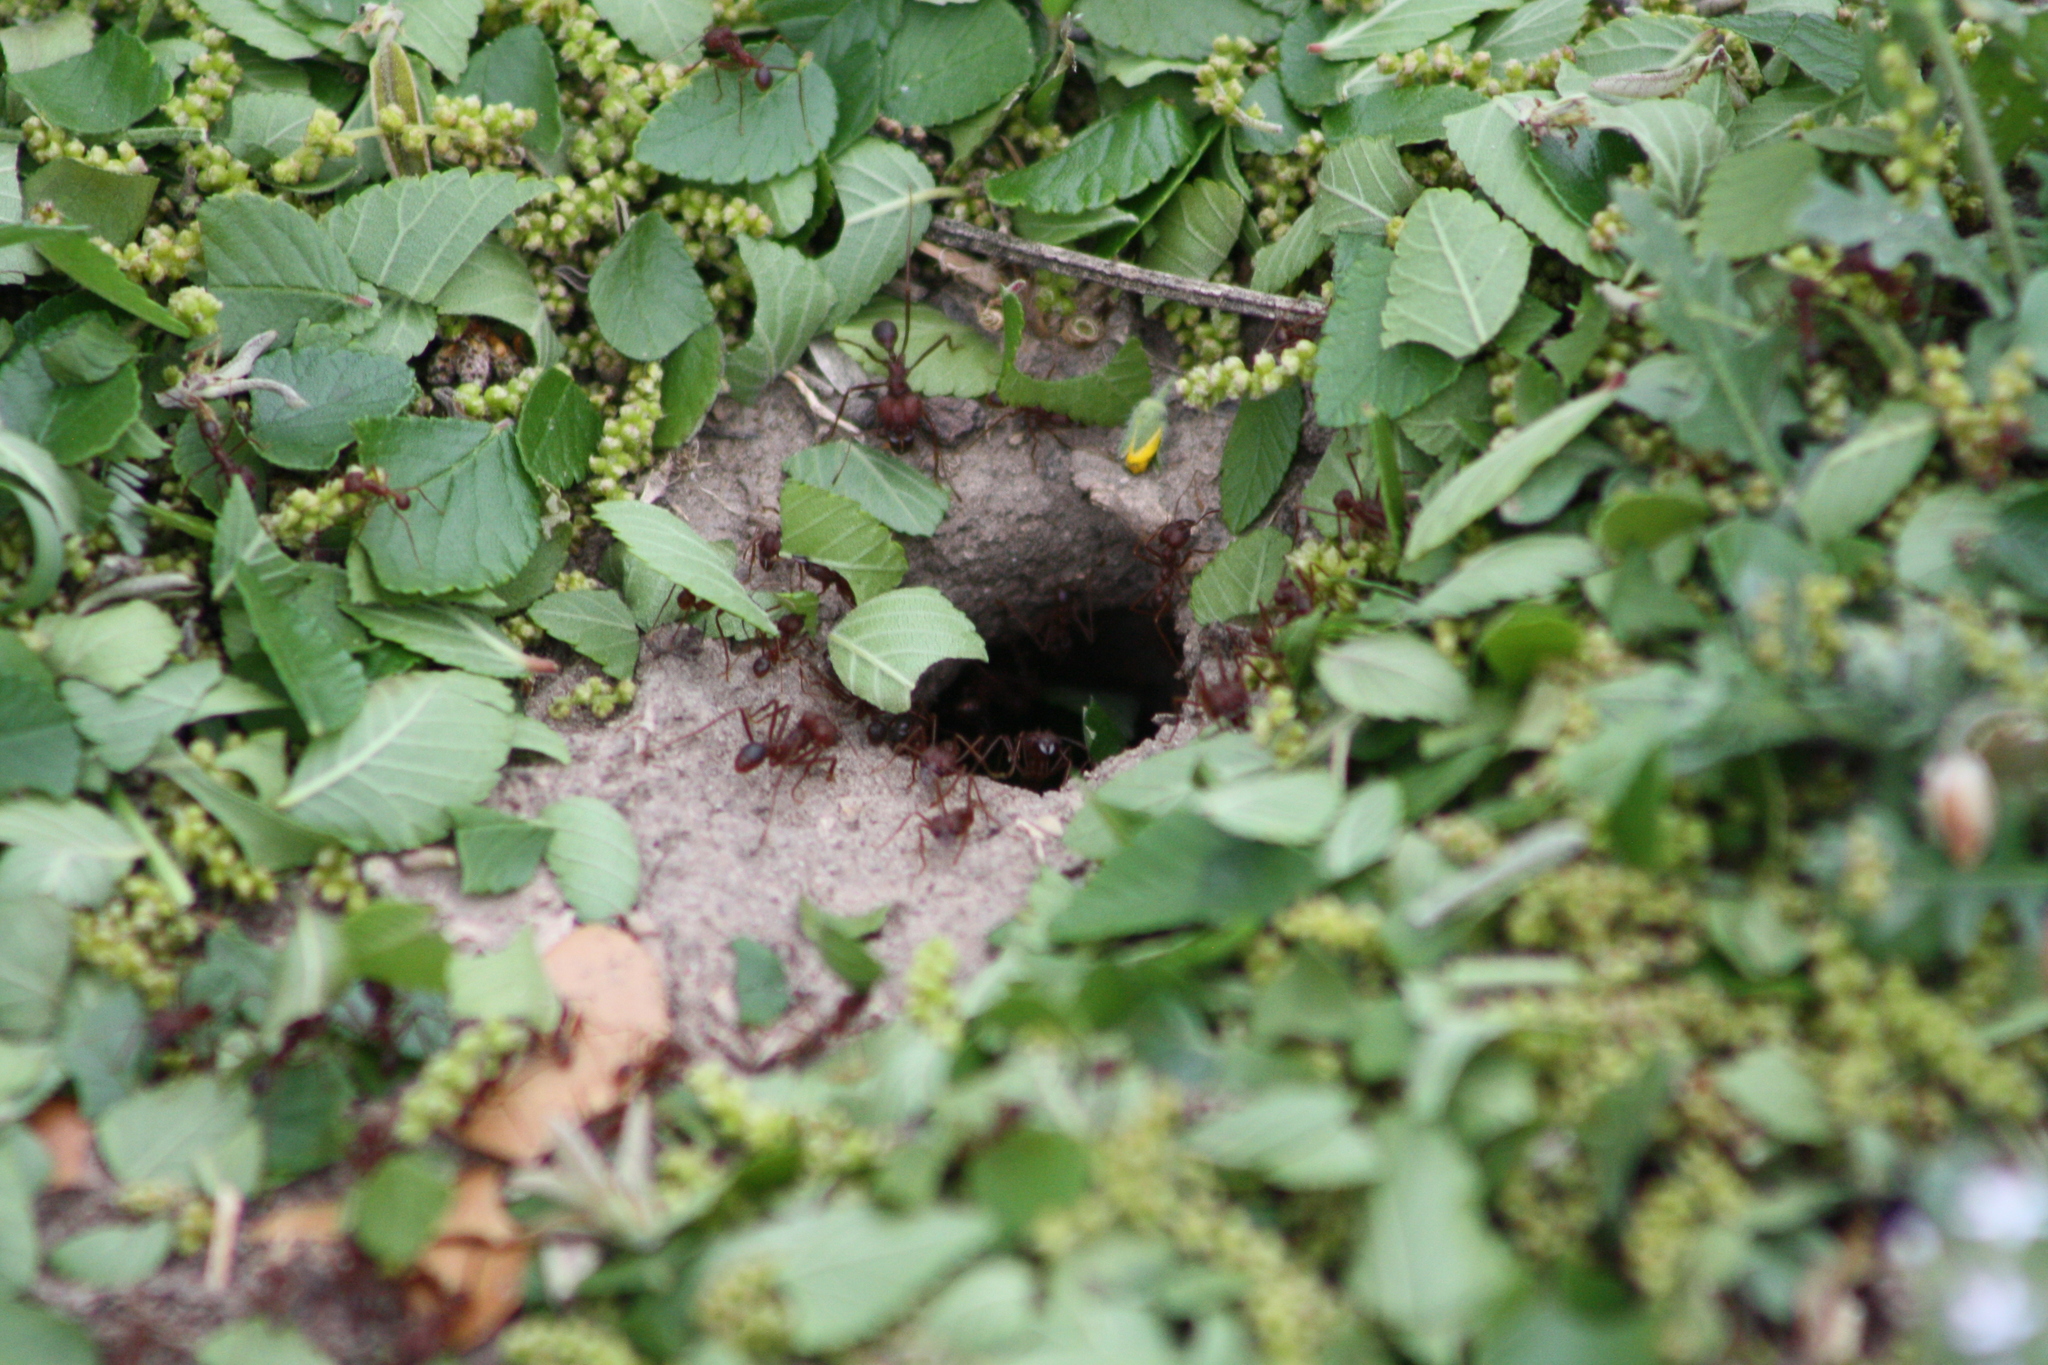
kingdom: Animalia
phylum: Arthropoda
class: Insecta
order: Hymenoptera
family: Formicidae
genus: Atta
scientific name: Atta texana
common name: Texas leafcutting ant
